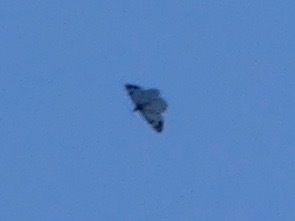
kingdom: Animalia
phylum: Arthropoda
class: Insecta
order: Lepidoptera
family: Pieridae
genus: Neophasia
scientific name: Neophasia menapia
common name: Pine white
